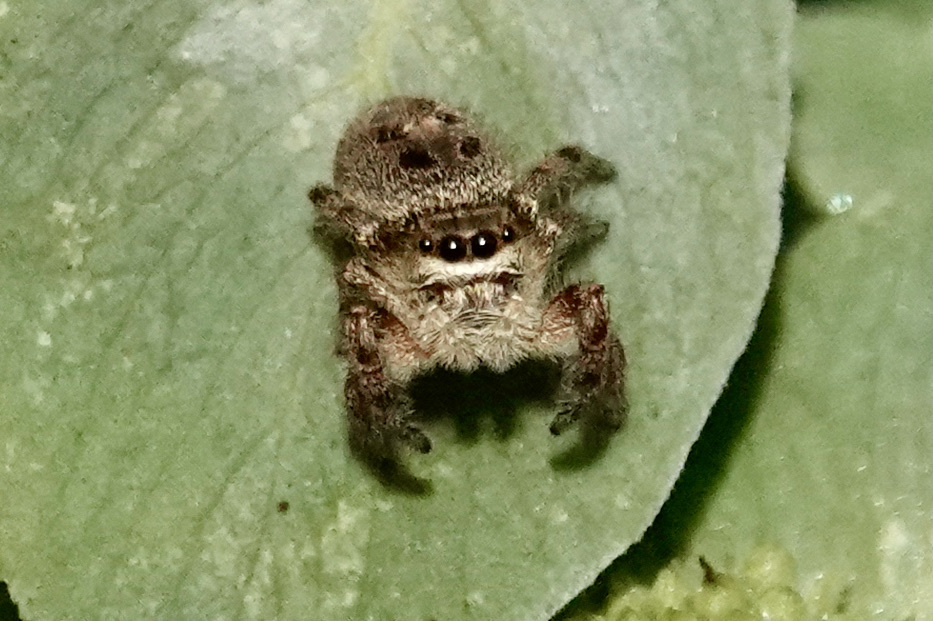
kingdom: Animalia
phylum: Arthropoda
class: Arachnida
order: Araneae
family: Salticidae
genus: Phidippus
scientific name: Phidippus princeps
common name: Grayish jumping spider
